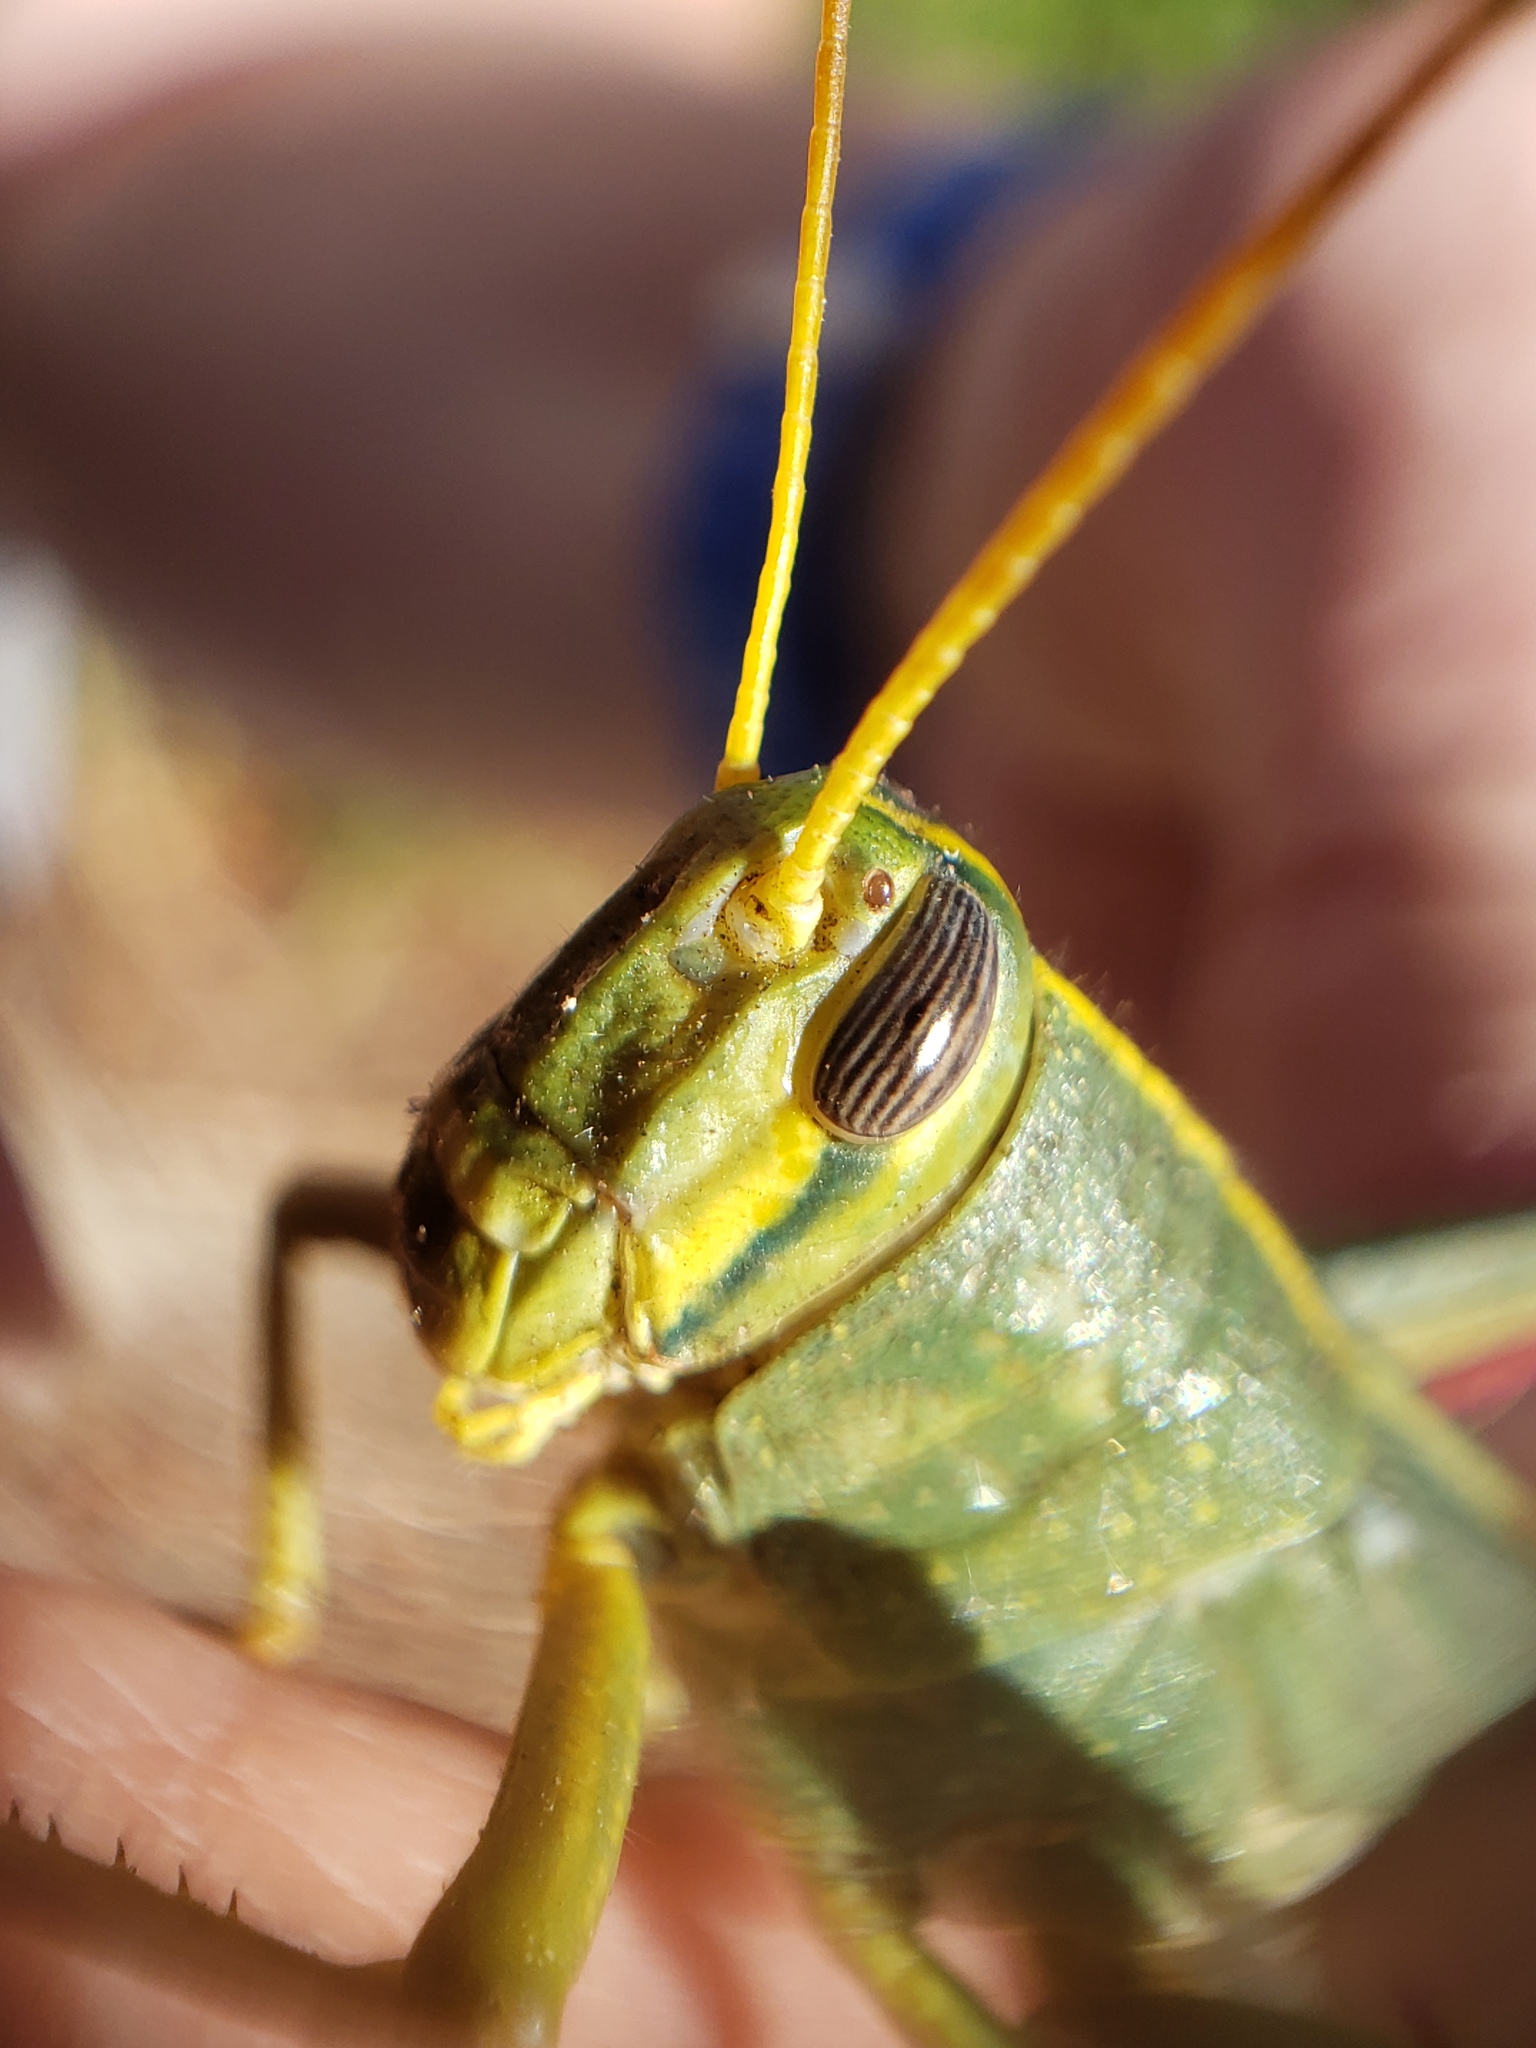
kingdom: Animalia
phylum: Arthropoda
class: Insecta
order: Orthoptera
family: Acrididae
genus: Schistocerca
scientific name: Schistocerca lineata
